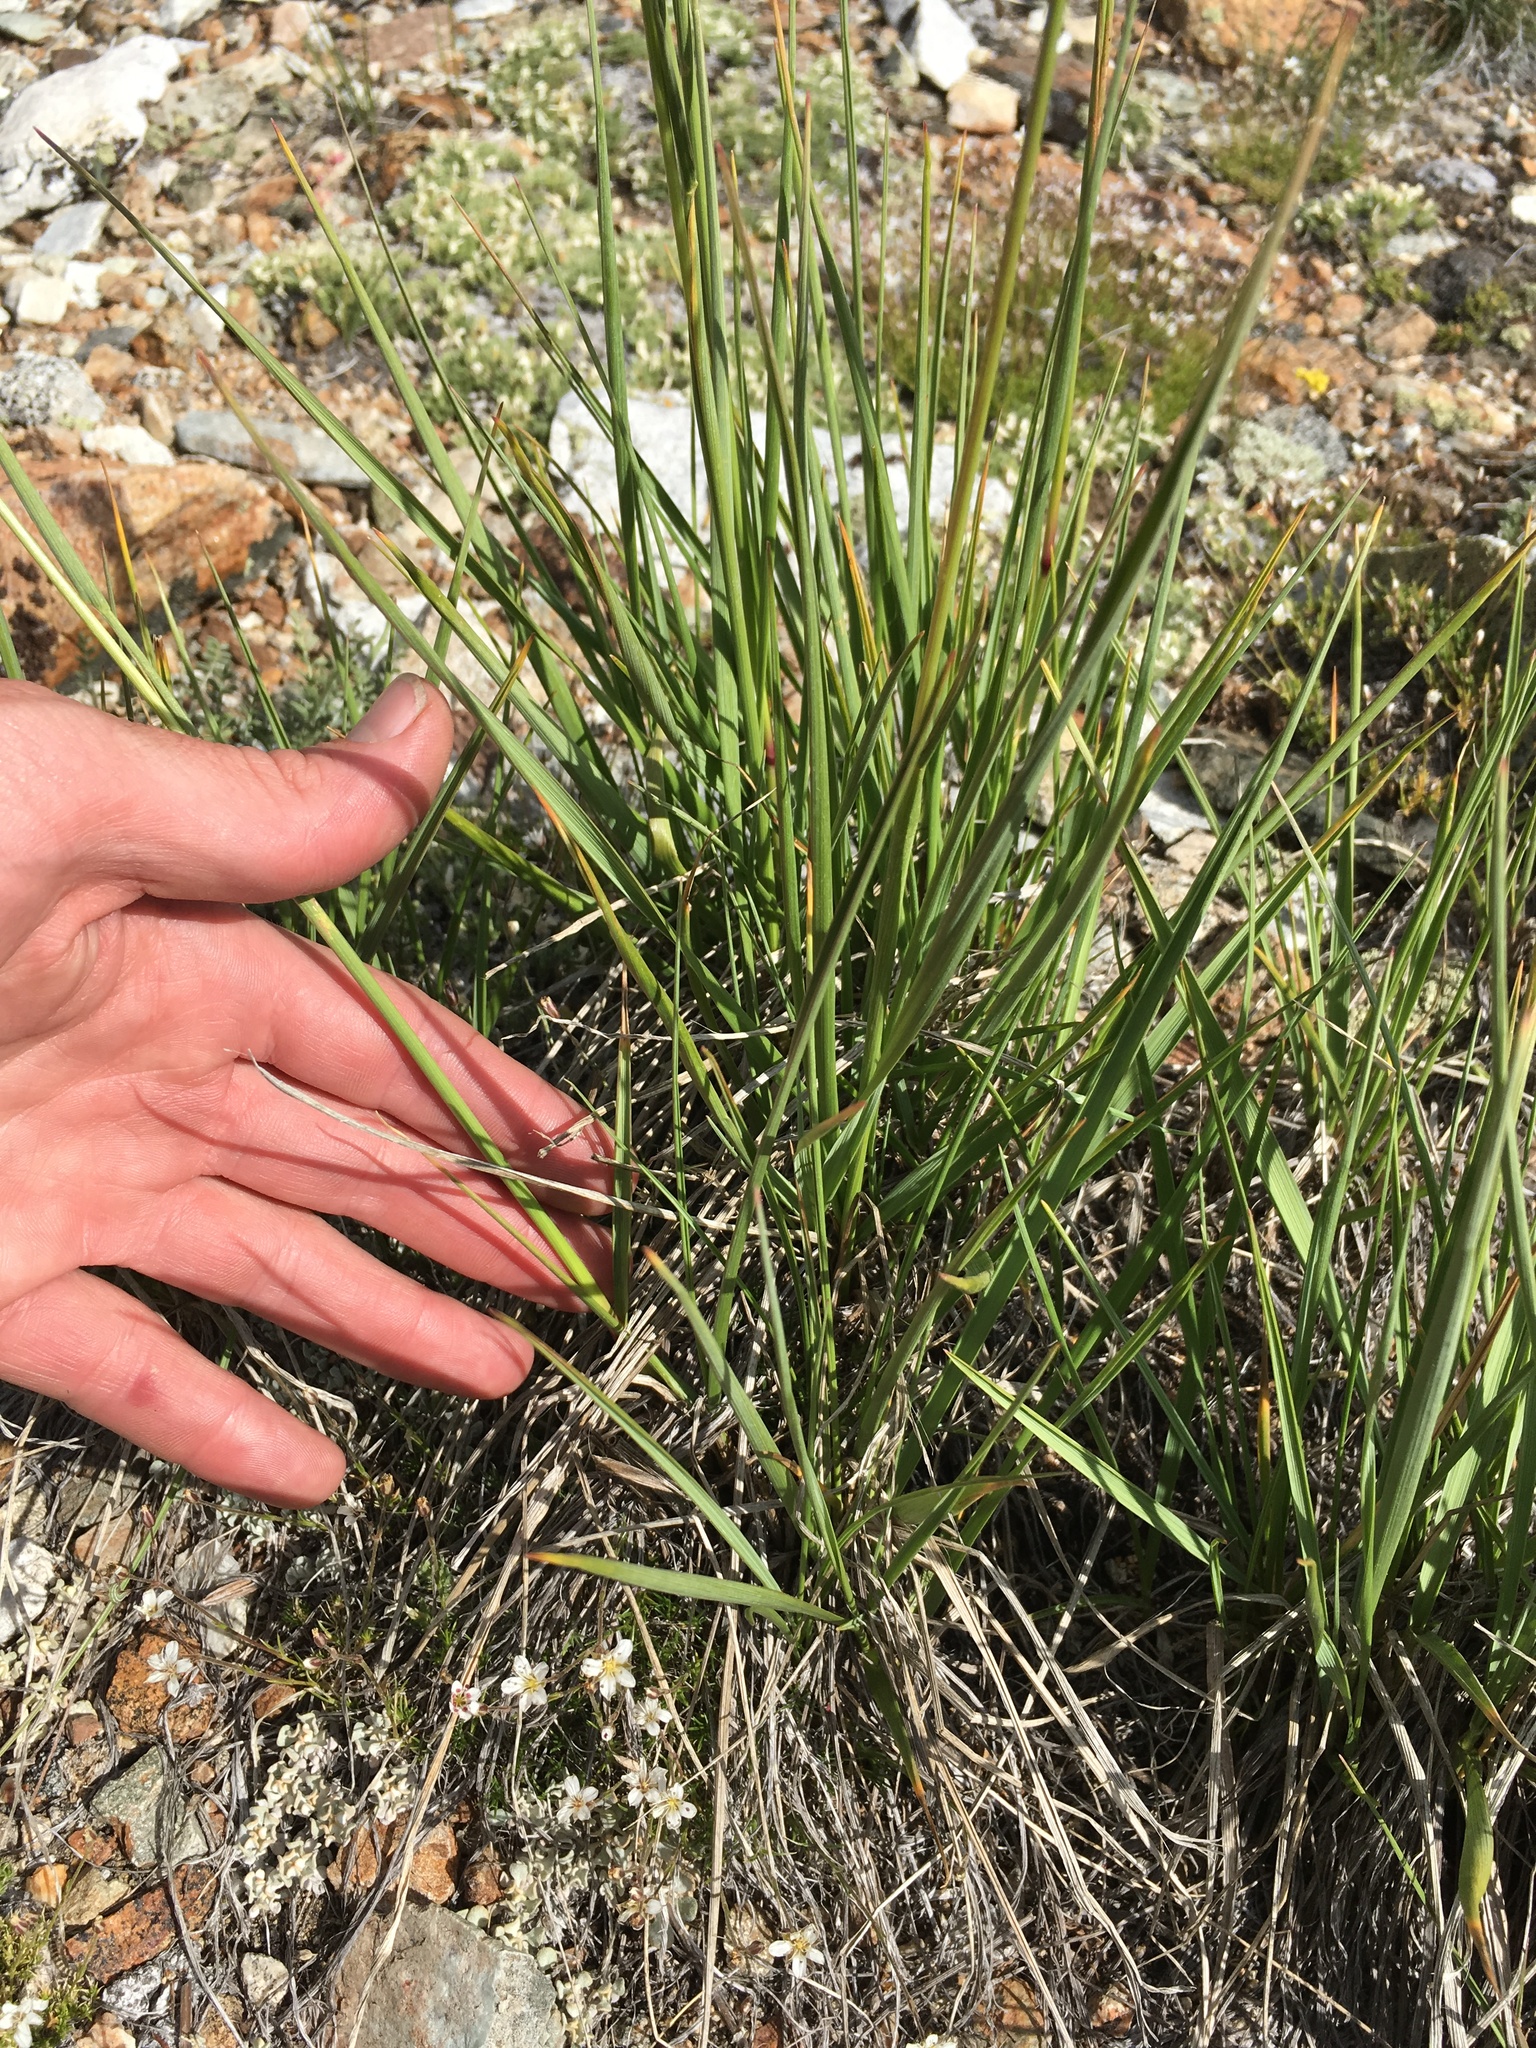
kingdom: Plantae
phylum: Tracheophyta
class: Liliopsida
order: Poales
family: Poaceae
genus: Festuca
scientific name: Festuca kingii
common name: Spike fescue
